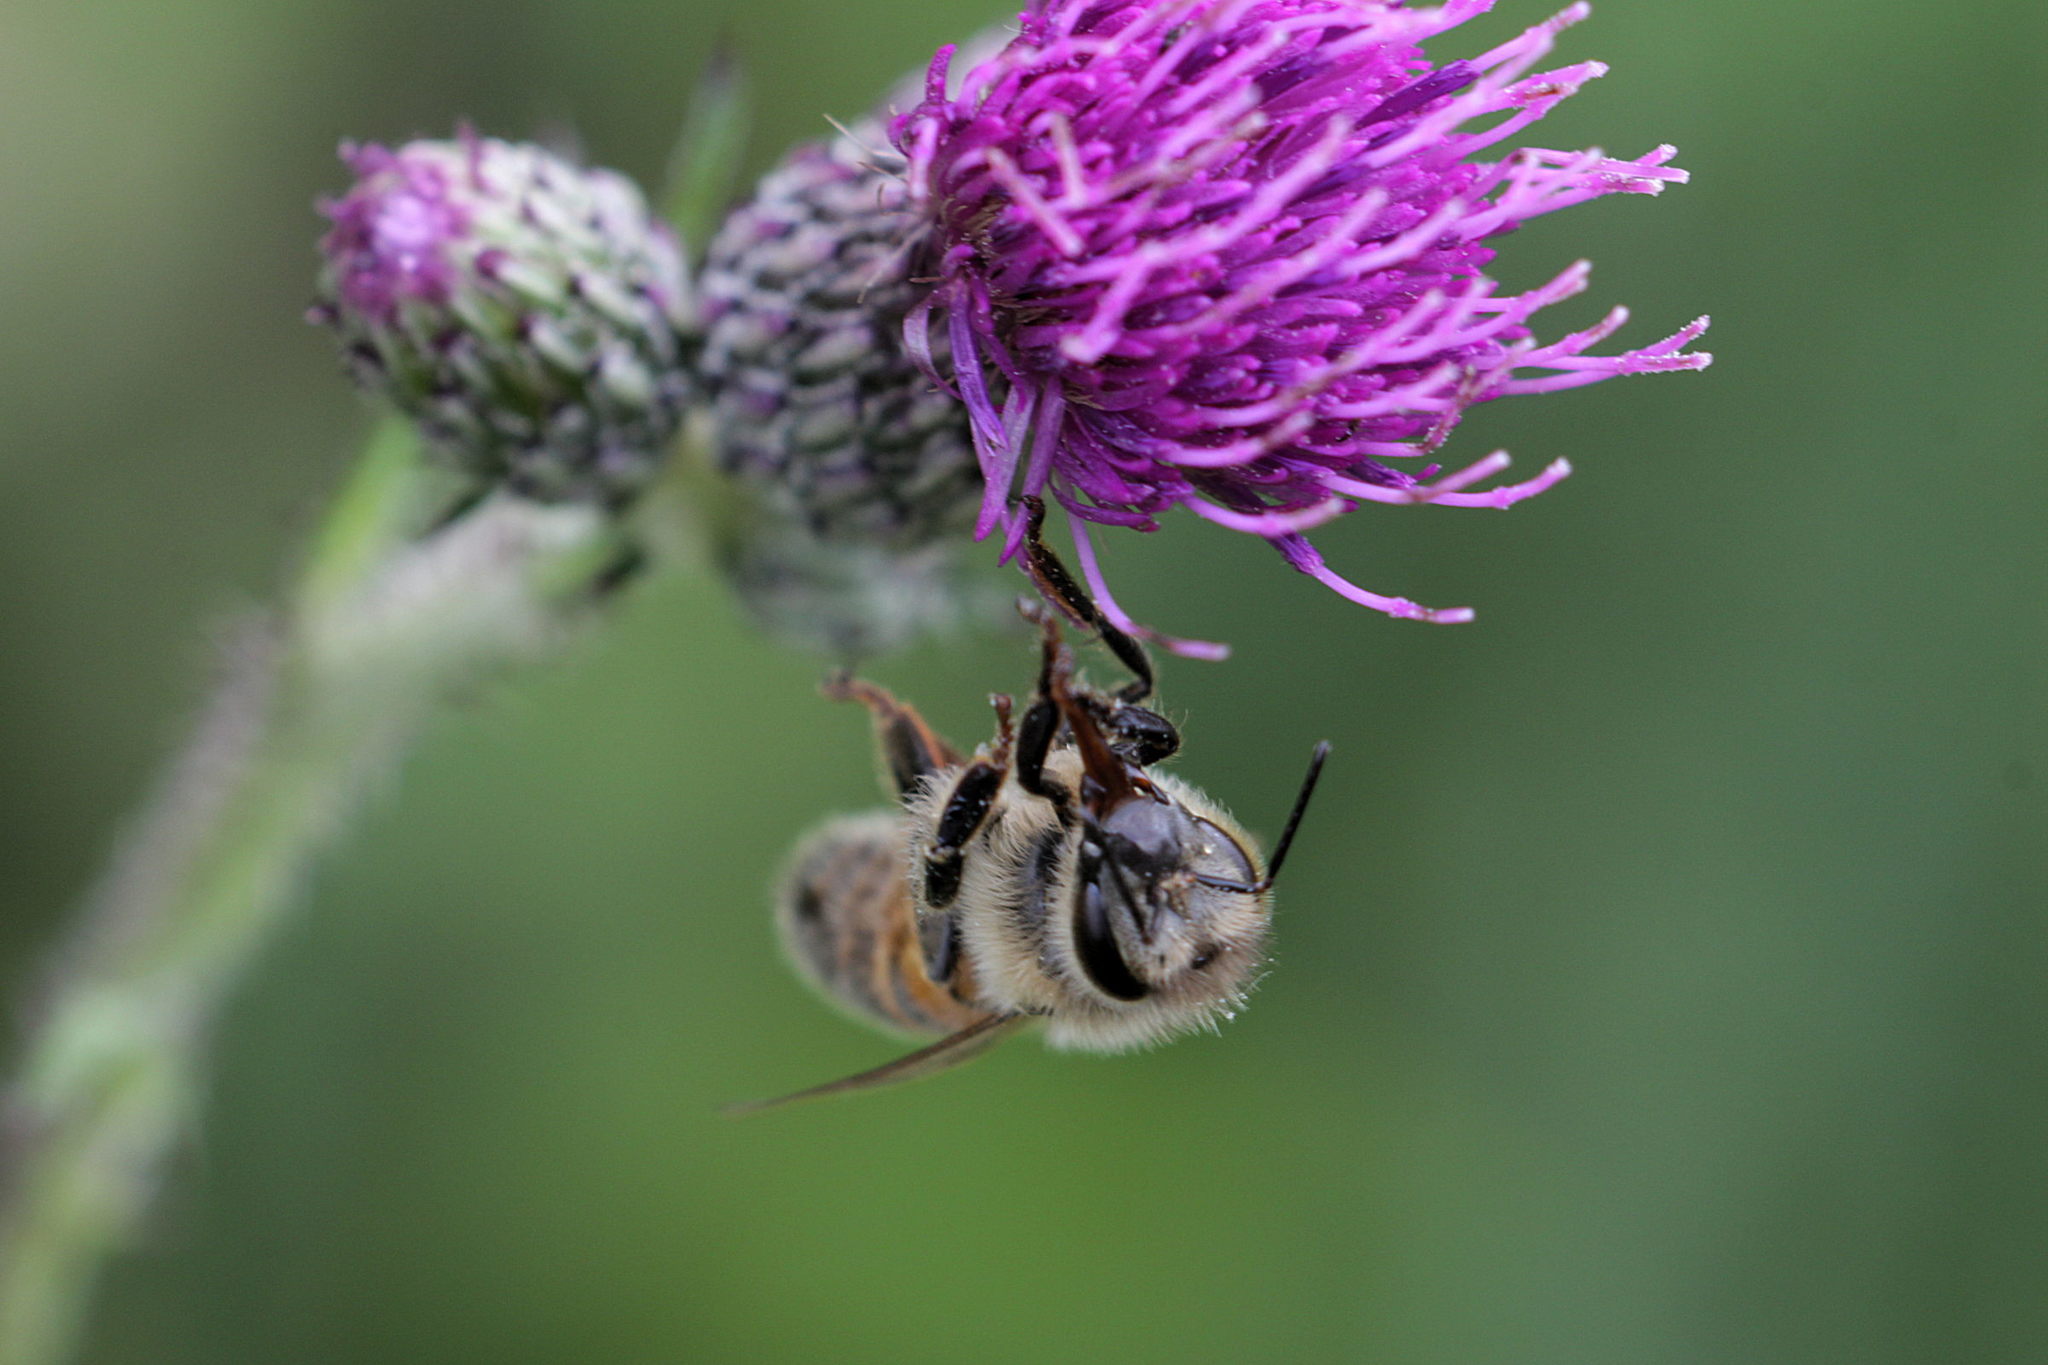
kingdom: Animalia
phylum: Arthropoda
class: Insecta
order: Hymenoptera
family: Apidae
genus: Apis
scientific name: Apis mellifera
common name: Honey bee
